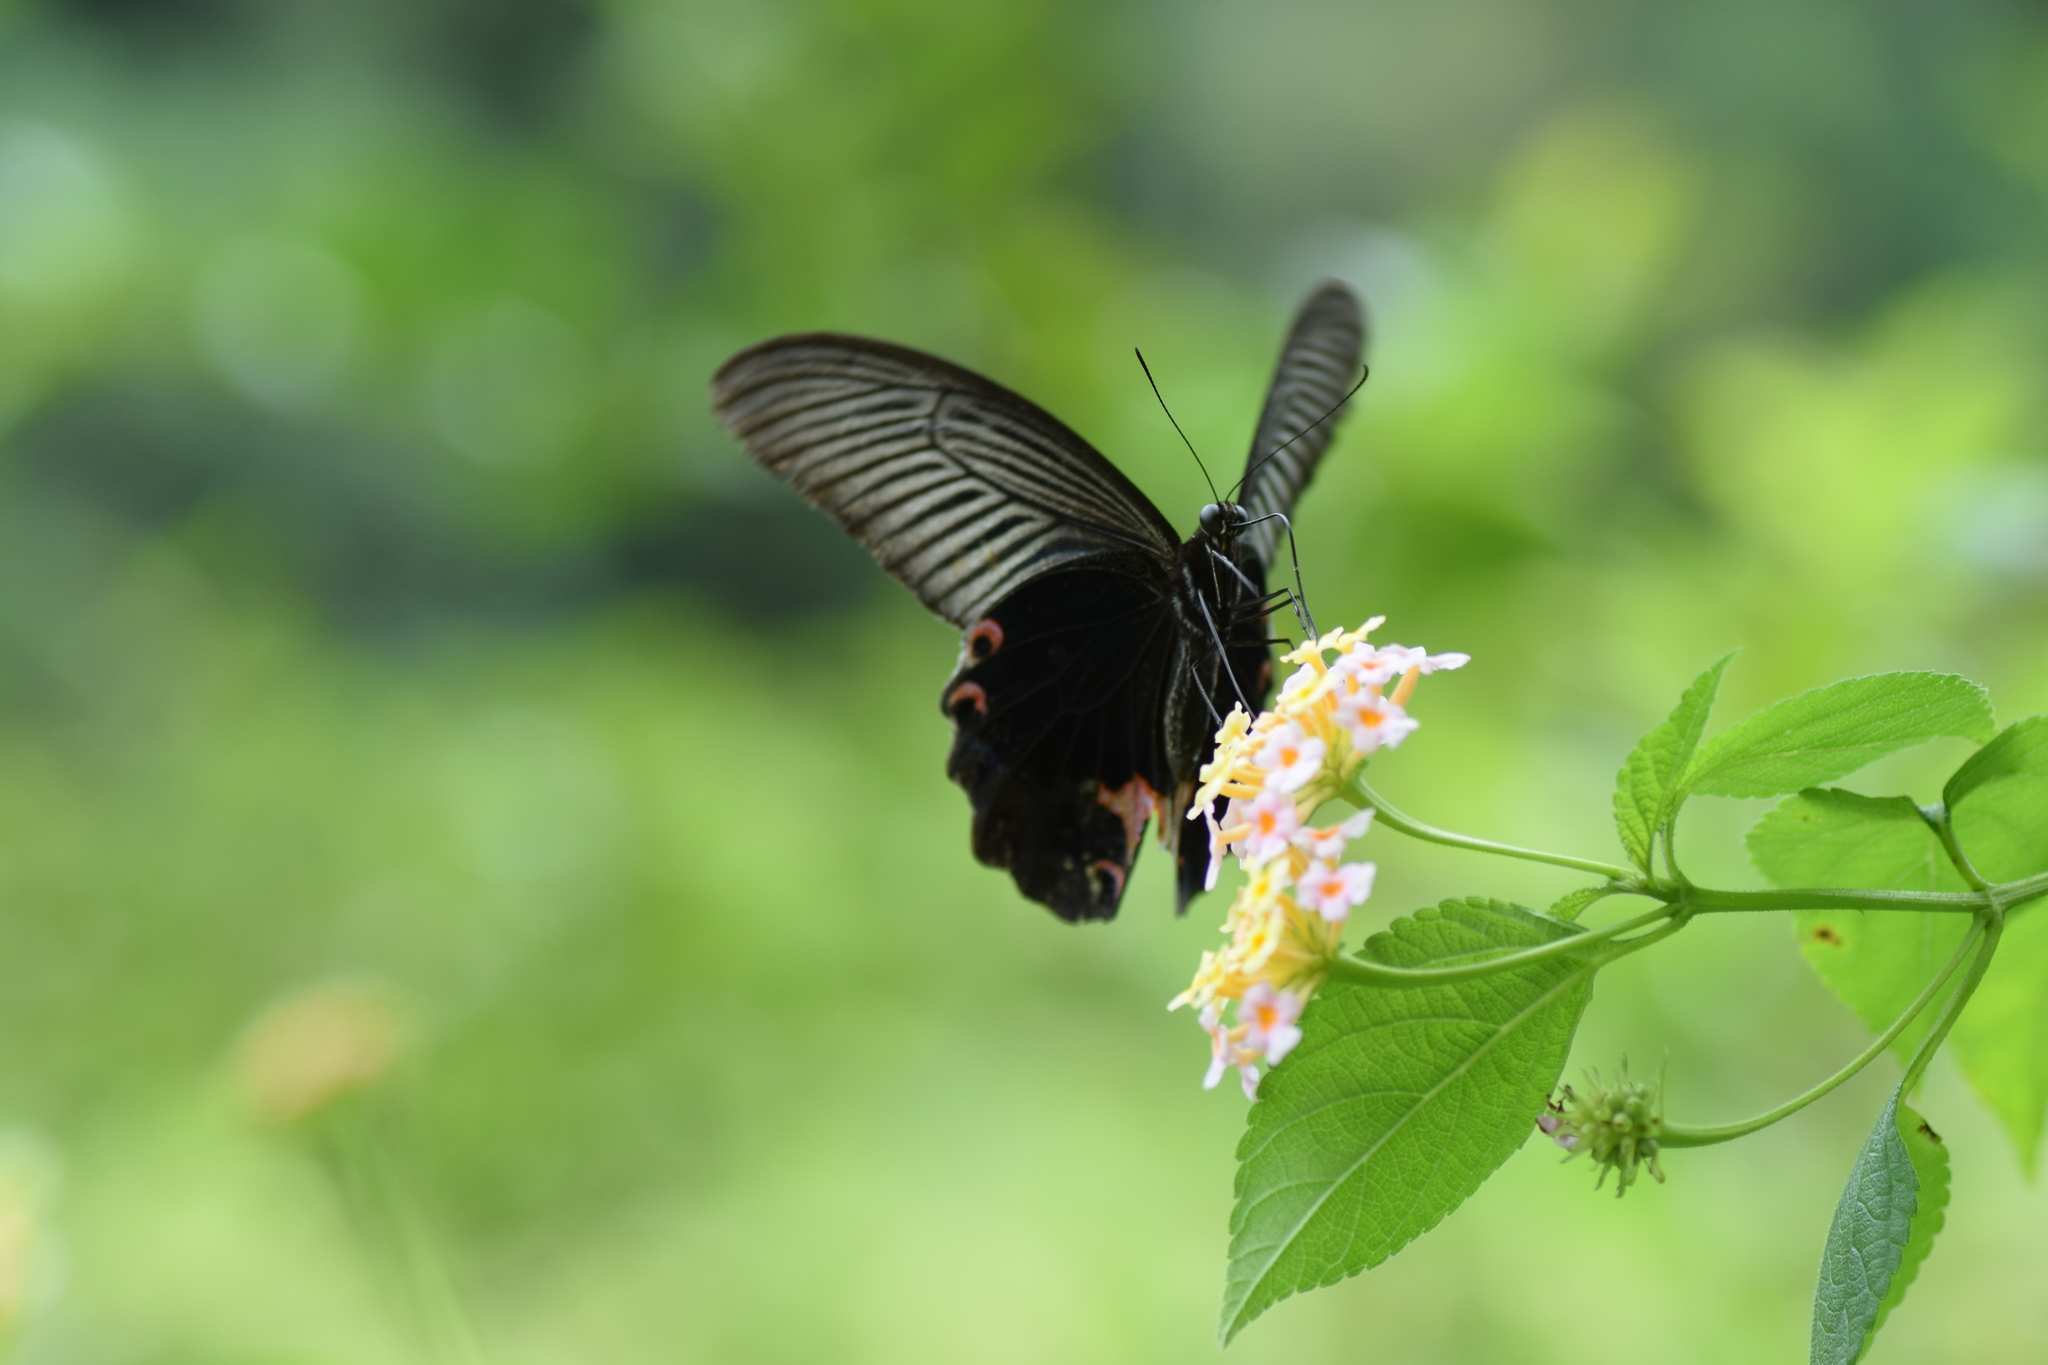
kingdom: Animalia
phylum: Arthropoda
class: Insecta
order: Lepidoptera
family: Papilionidae
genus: Papilio
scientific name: Papilio protenor
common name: Spangle
